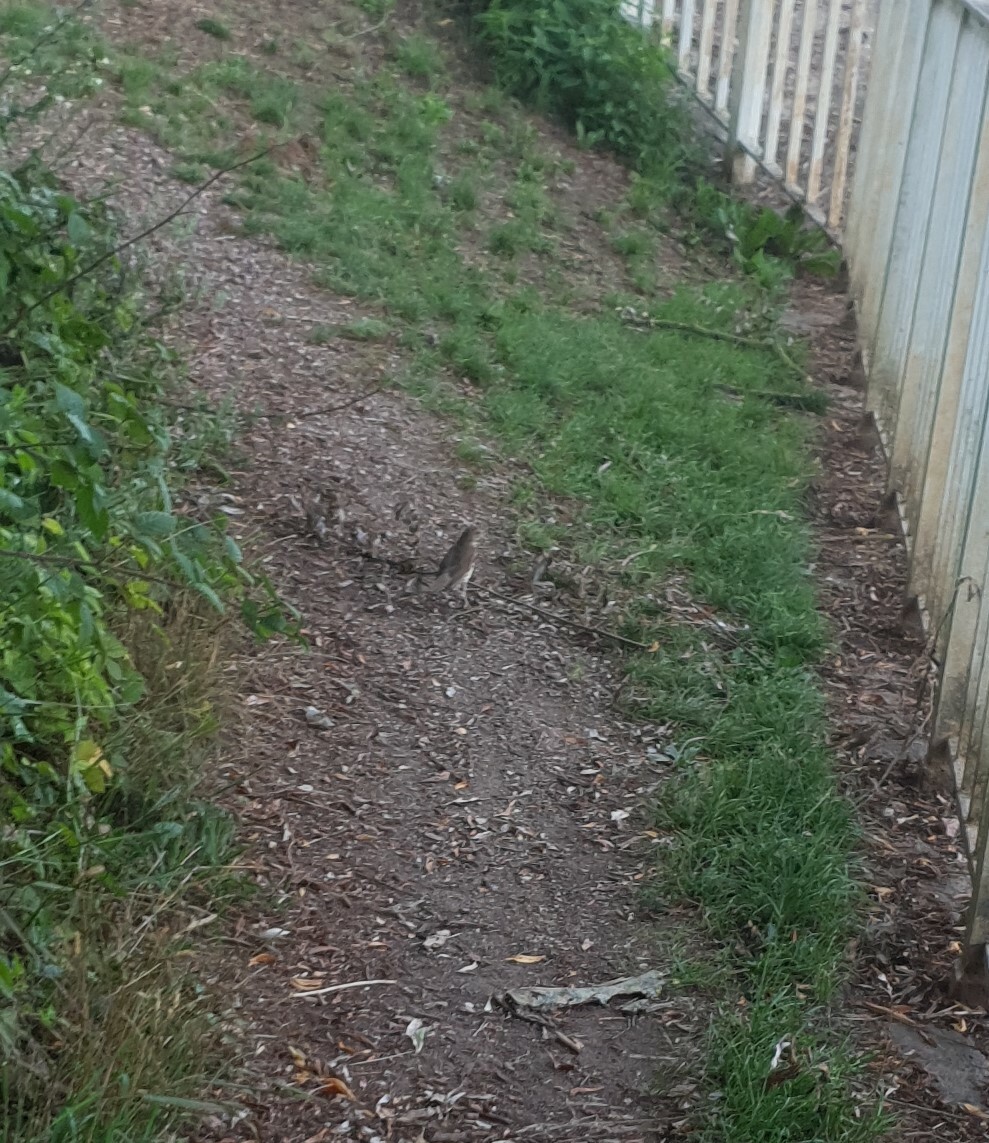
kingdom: Animalia
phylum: Chordata
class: Aves
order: Passeriformes
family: Turdidae
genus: Turdus
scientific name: Turdus philomelos
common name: Song thrush
